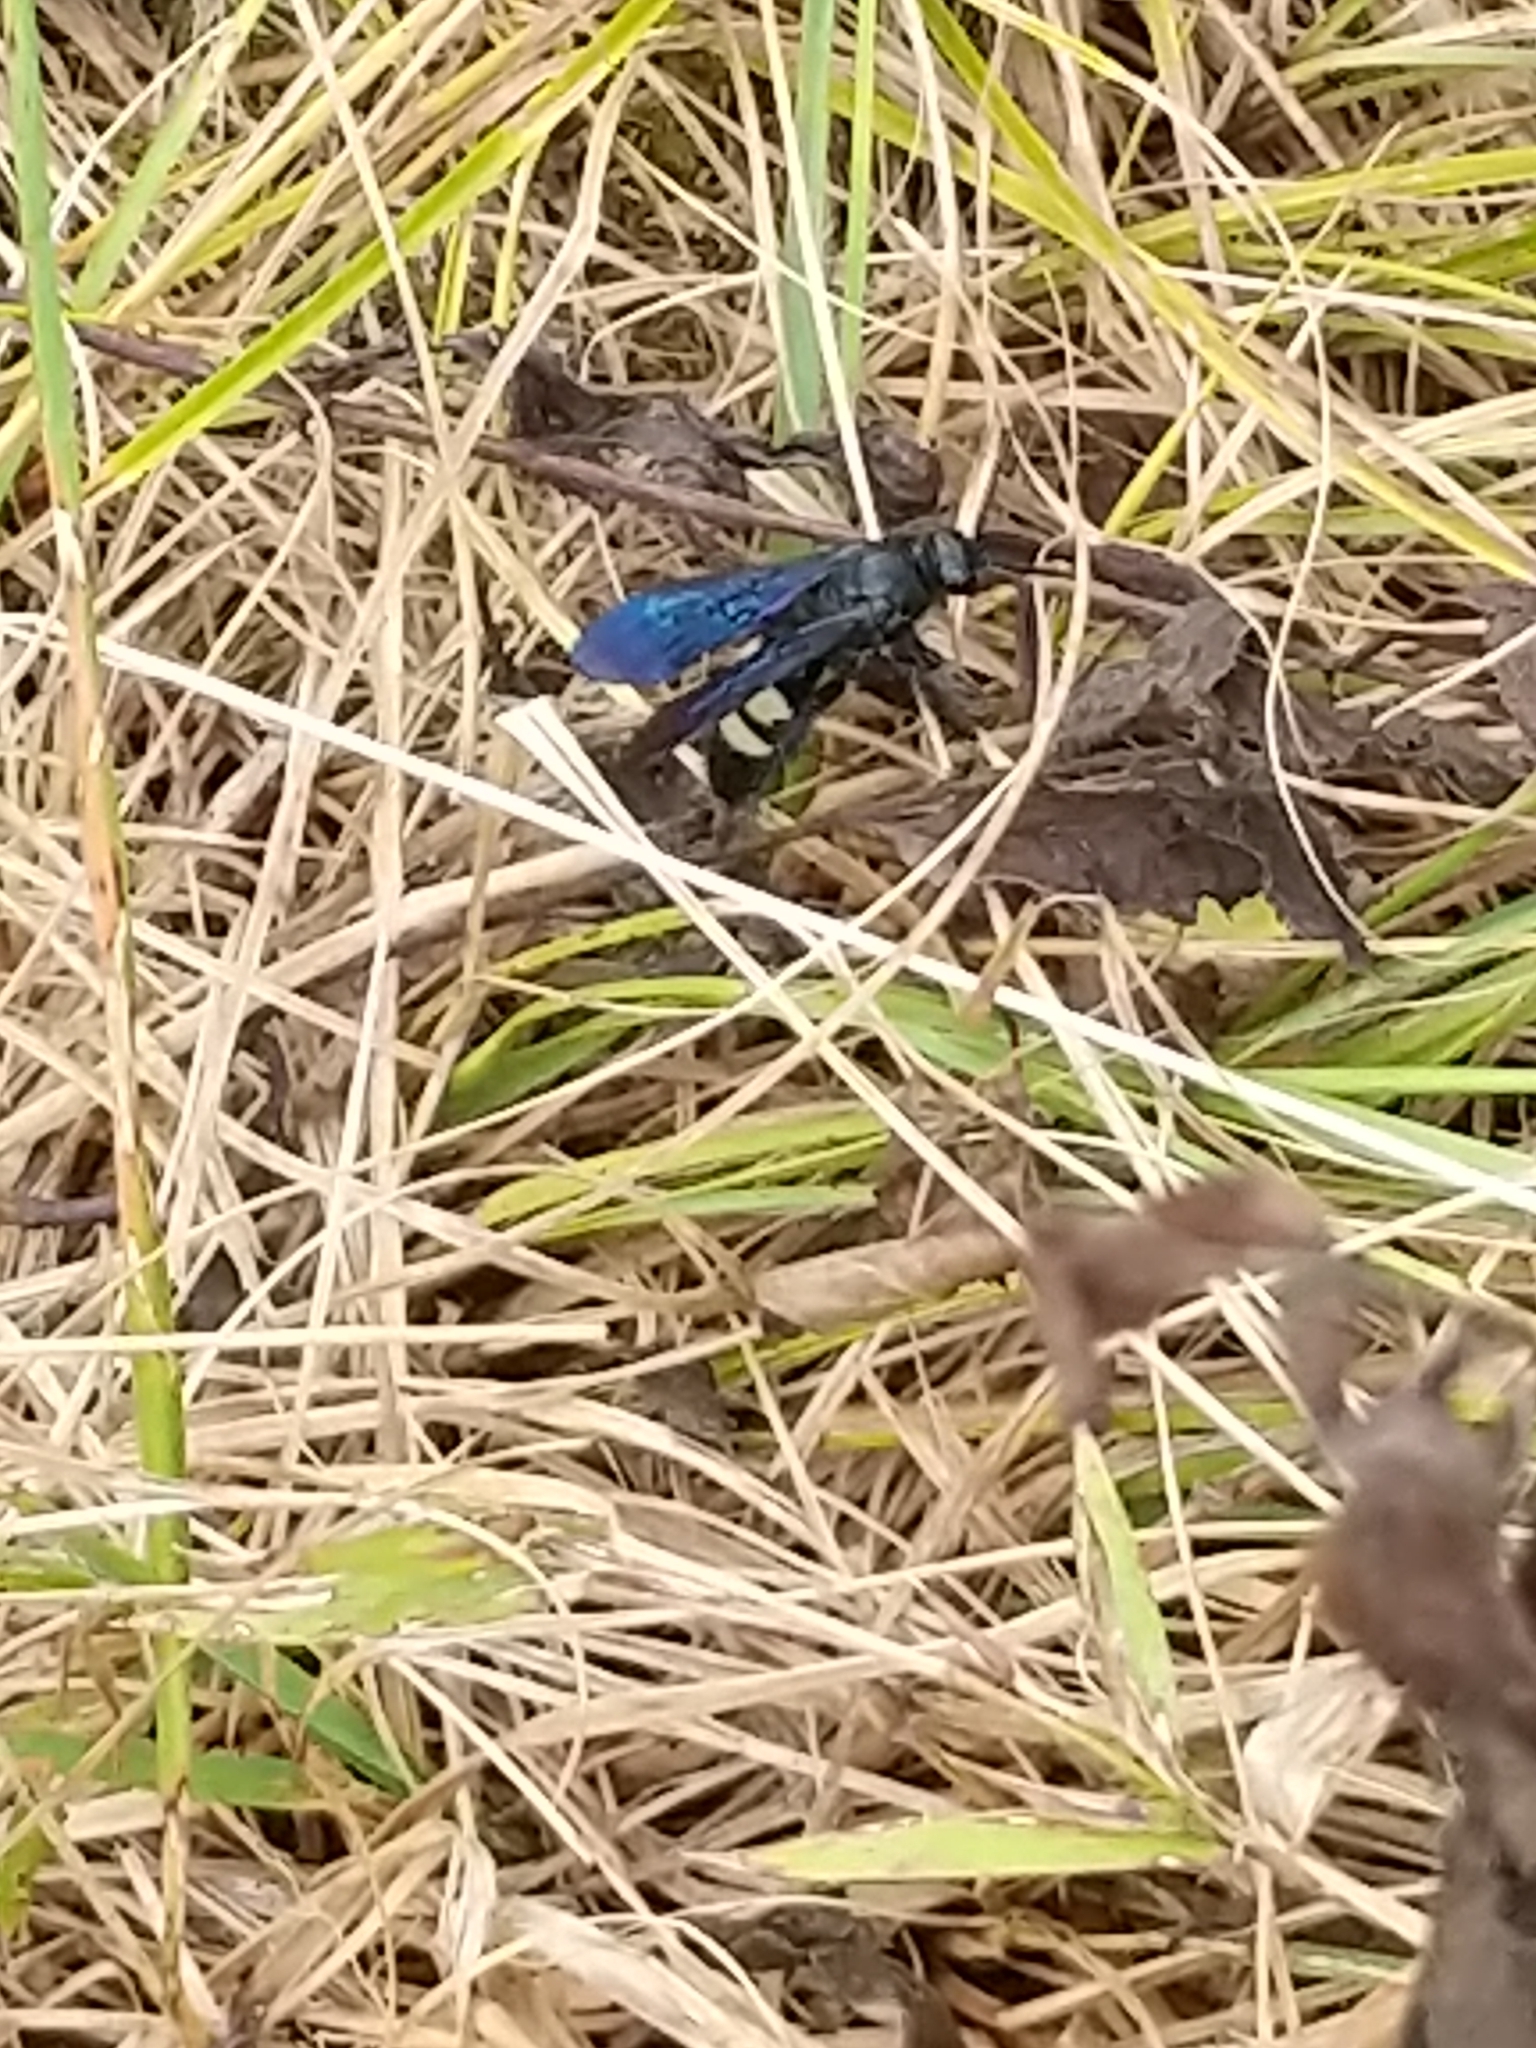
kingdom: Animalia
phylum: Arthropoda
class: Insecta
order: Hymenoptera
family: Scoliidae
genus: Scolia
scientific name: Scolia bicincta
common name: Double-banded scoliid wasp
